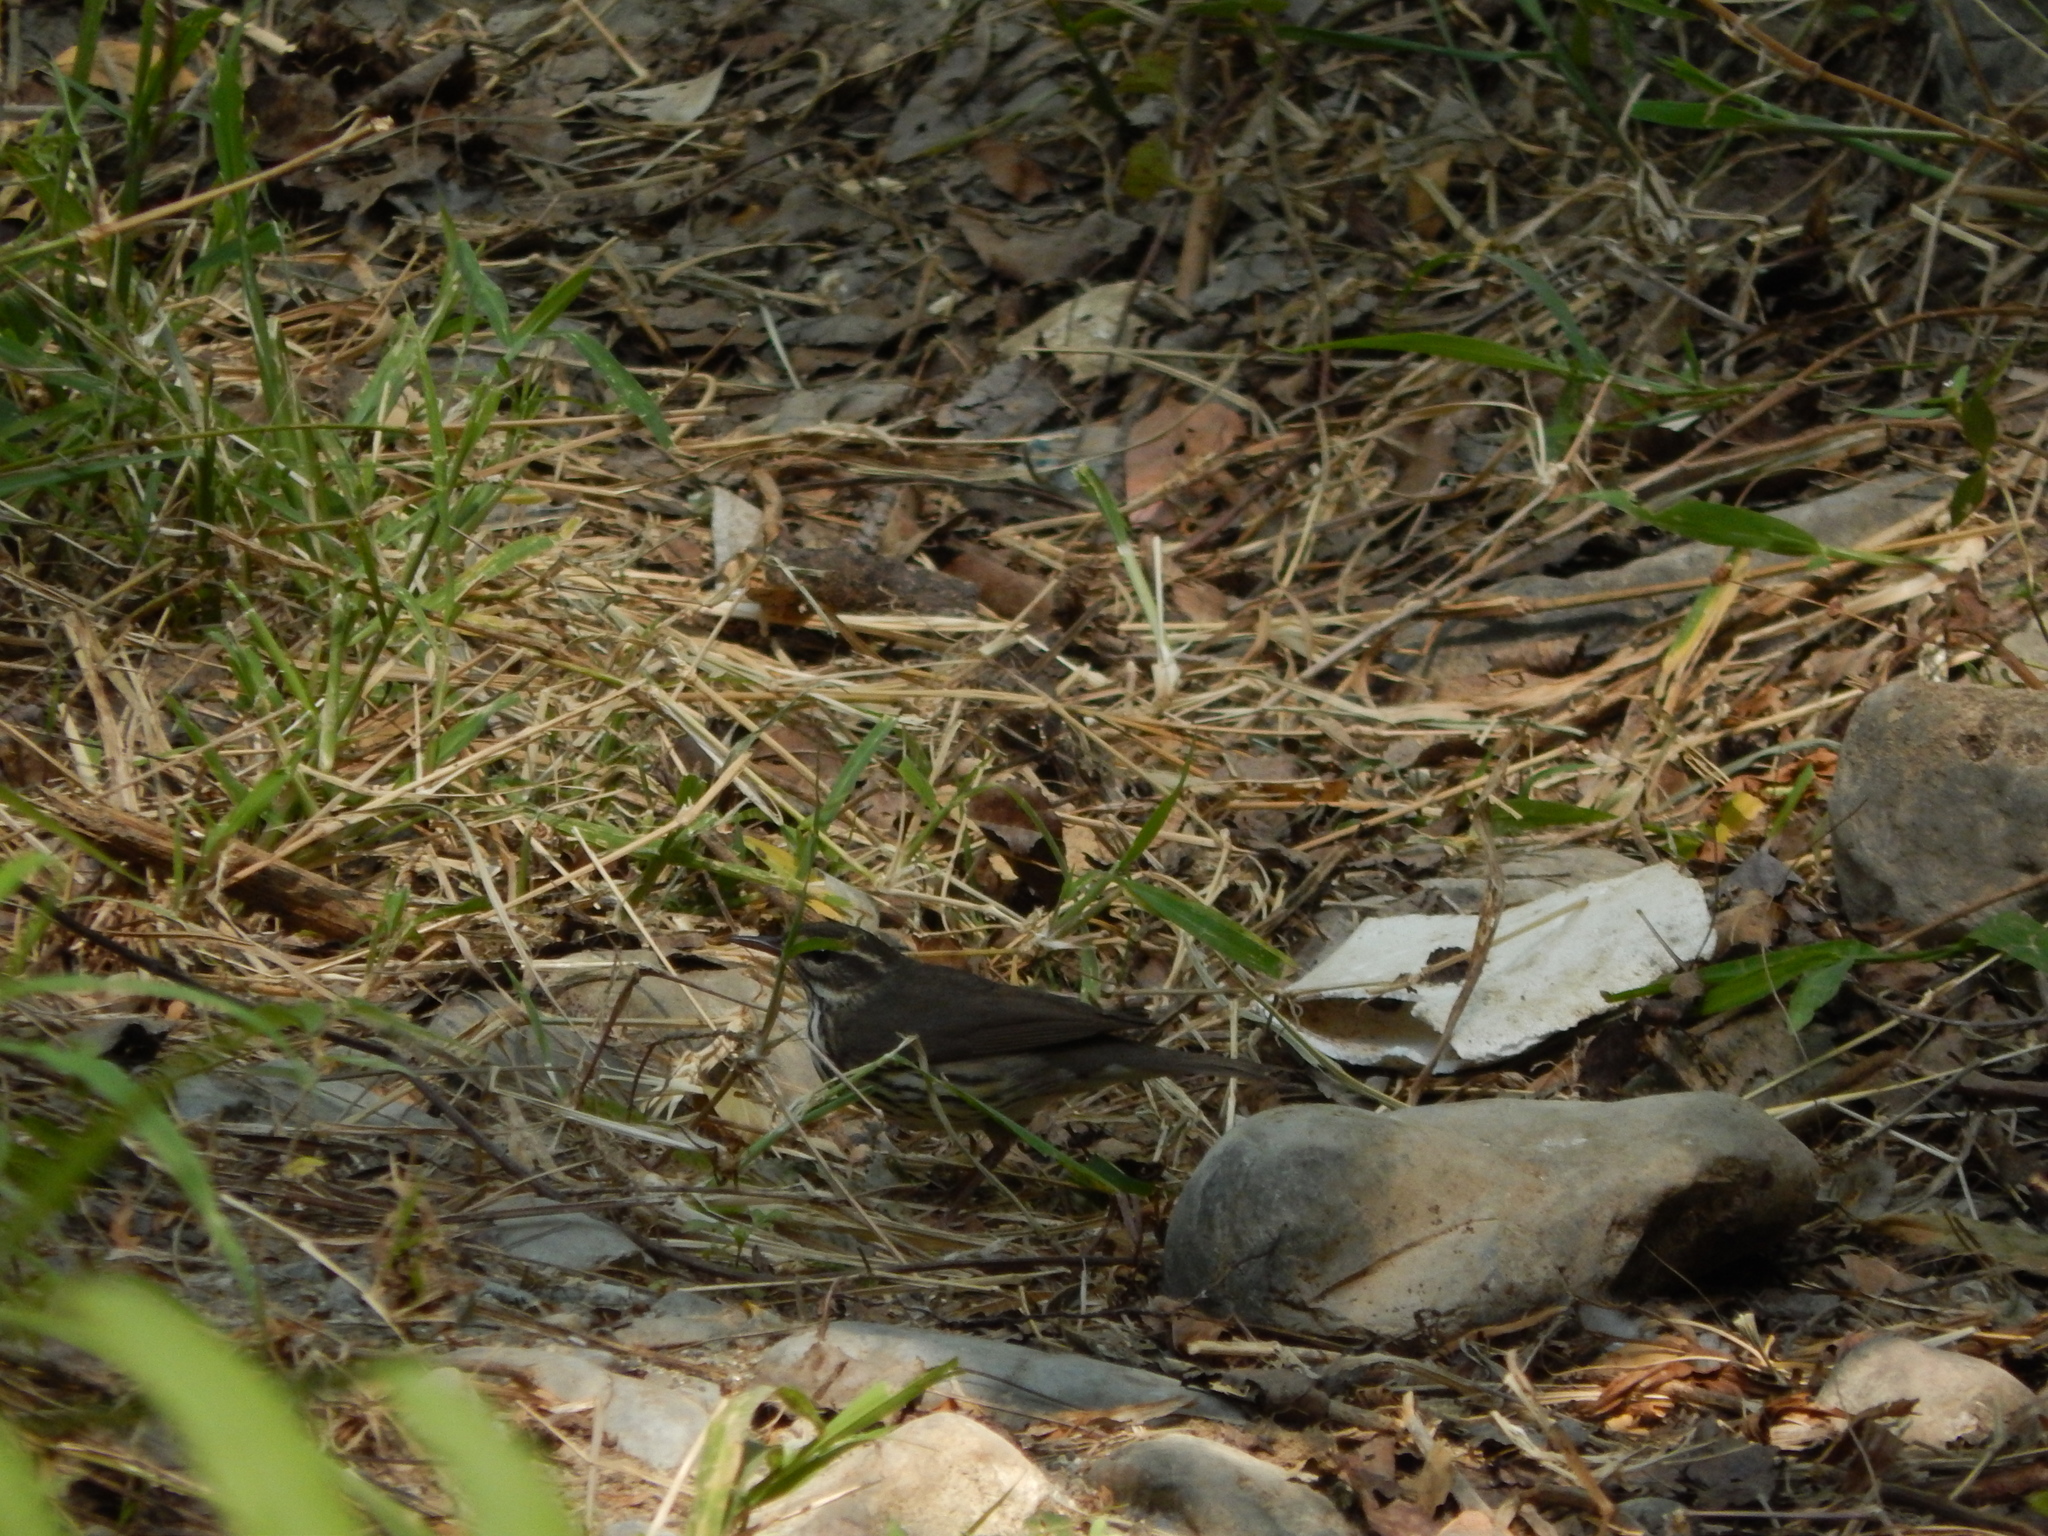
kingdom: Animalia
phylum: Chordata
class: Aves
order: Passeriformes
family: Parulidae
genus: Parkesia
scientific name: Parkesia noveboracensis
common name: Northern waterthrush
